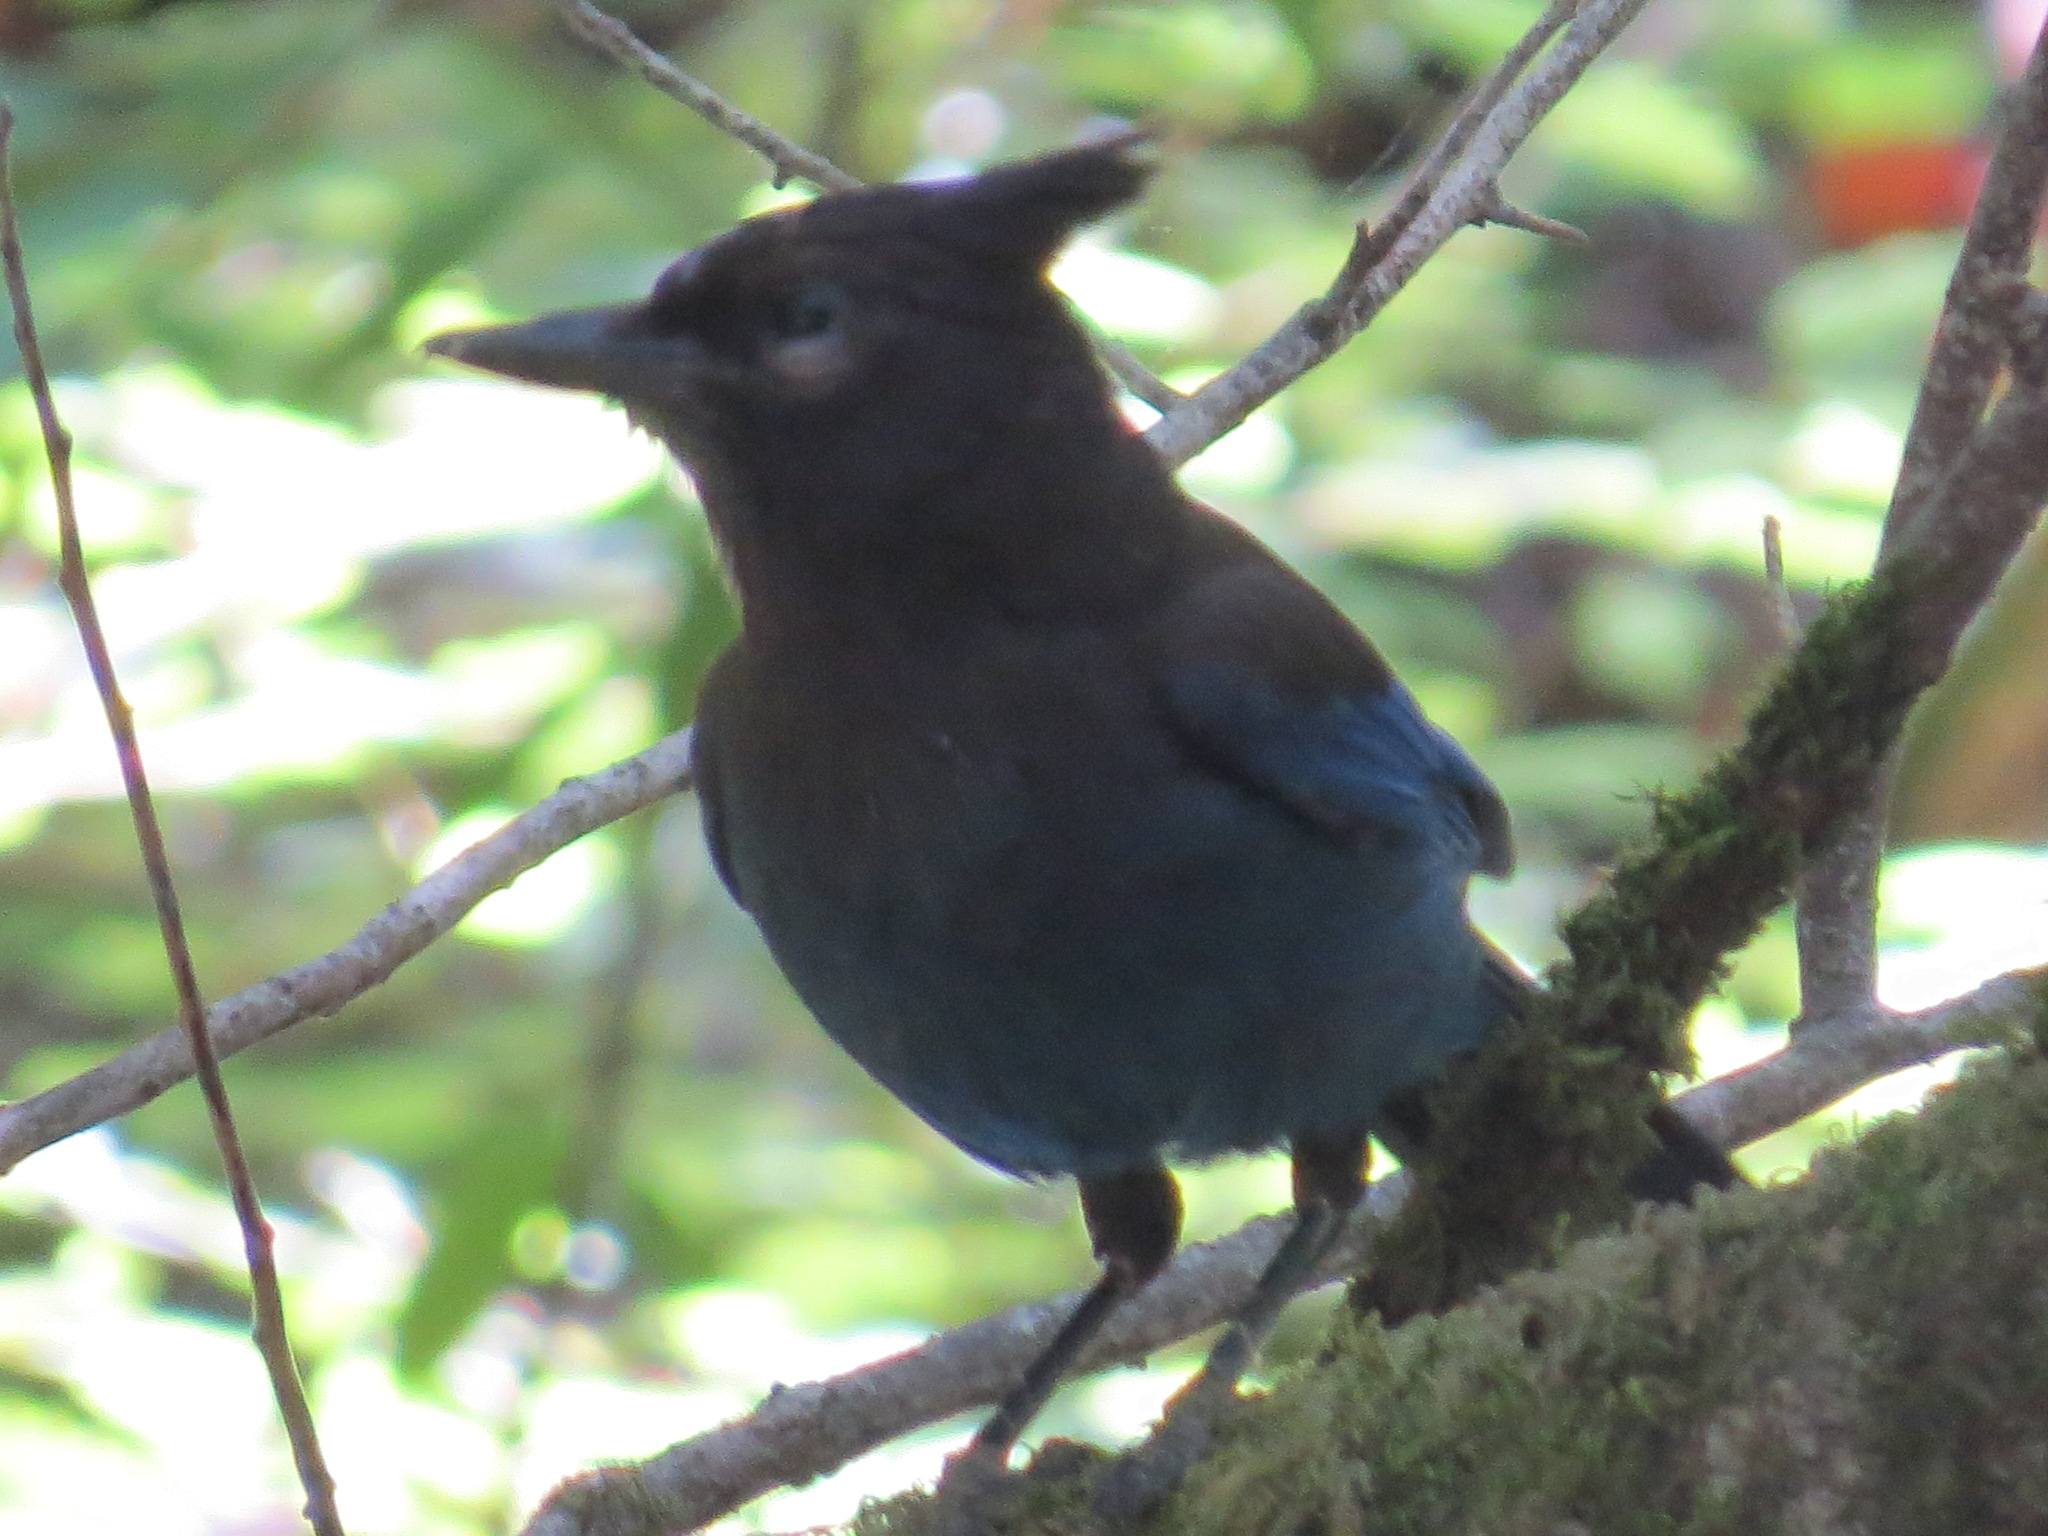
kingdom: Animalia
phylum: Chordata
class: Aves
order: Passeriformes
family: Corvidae
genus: Cyanocitta
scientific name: Cyanocitta stelleri
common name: Steller's jay
